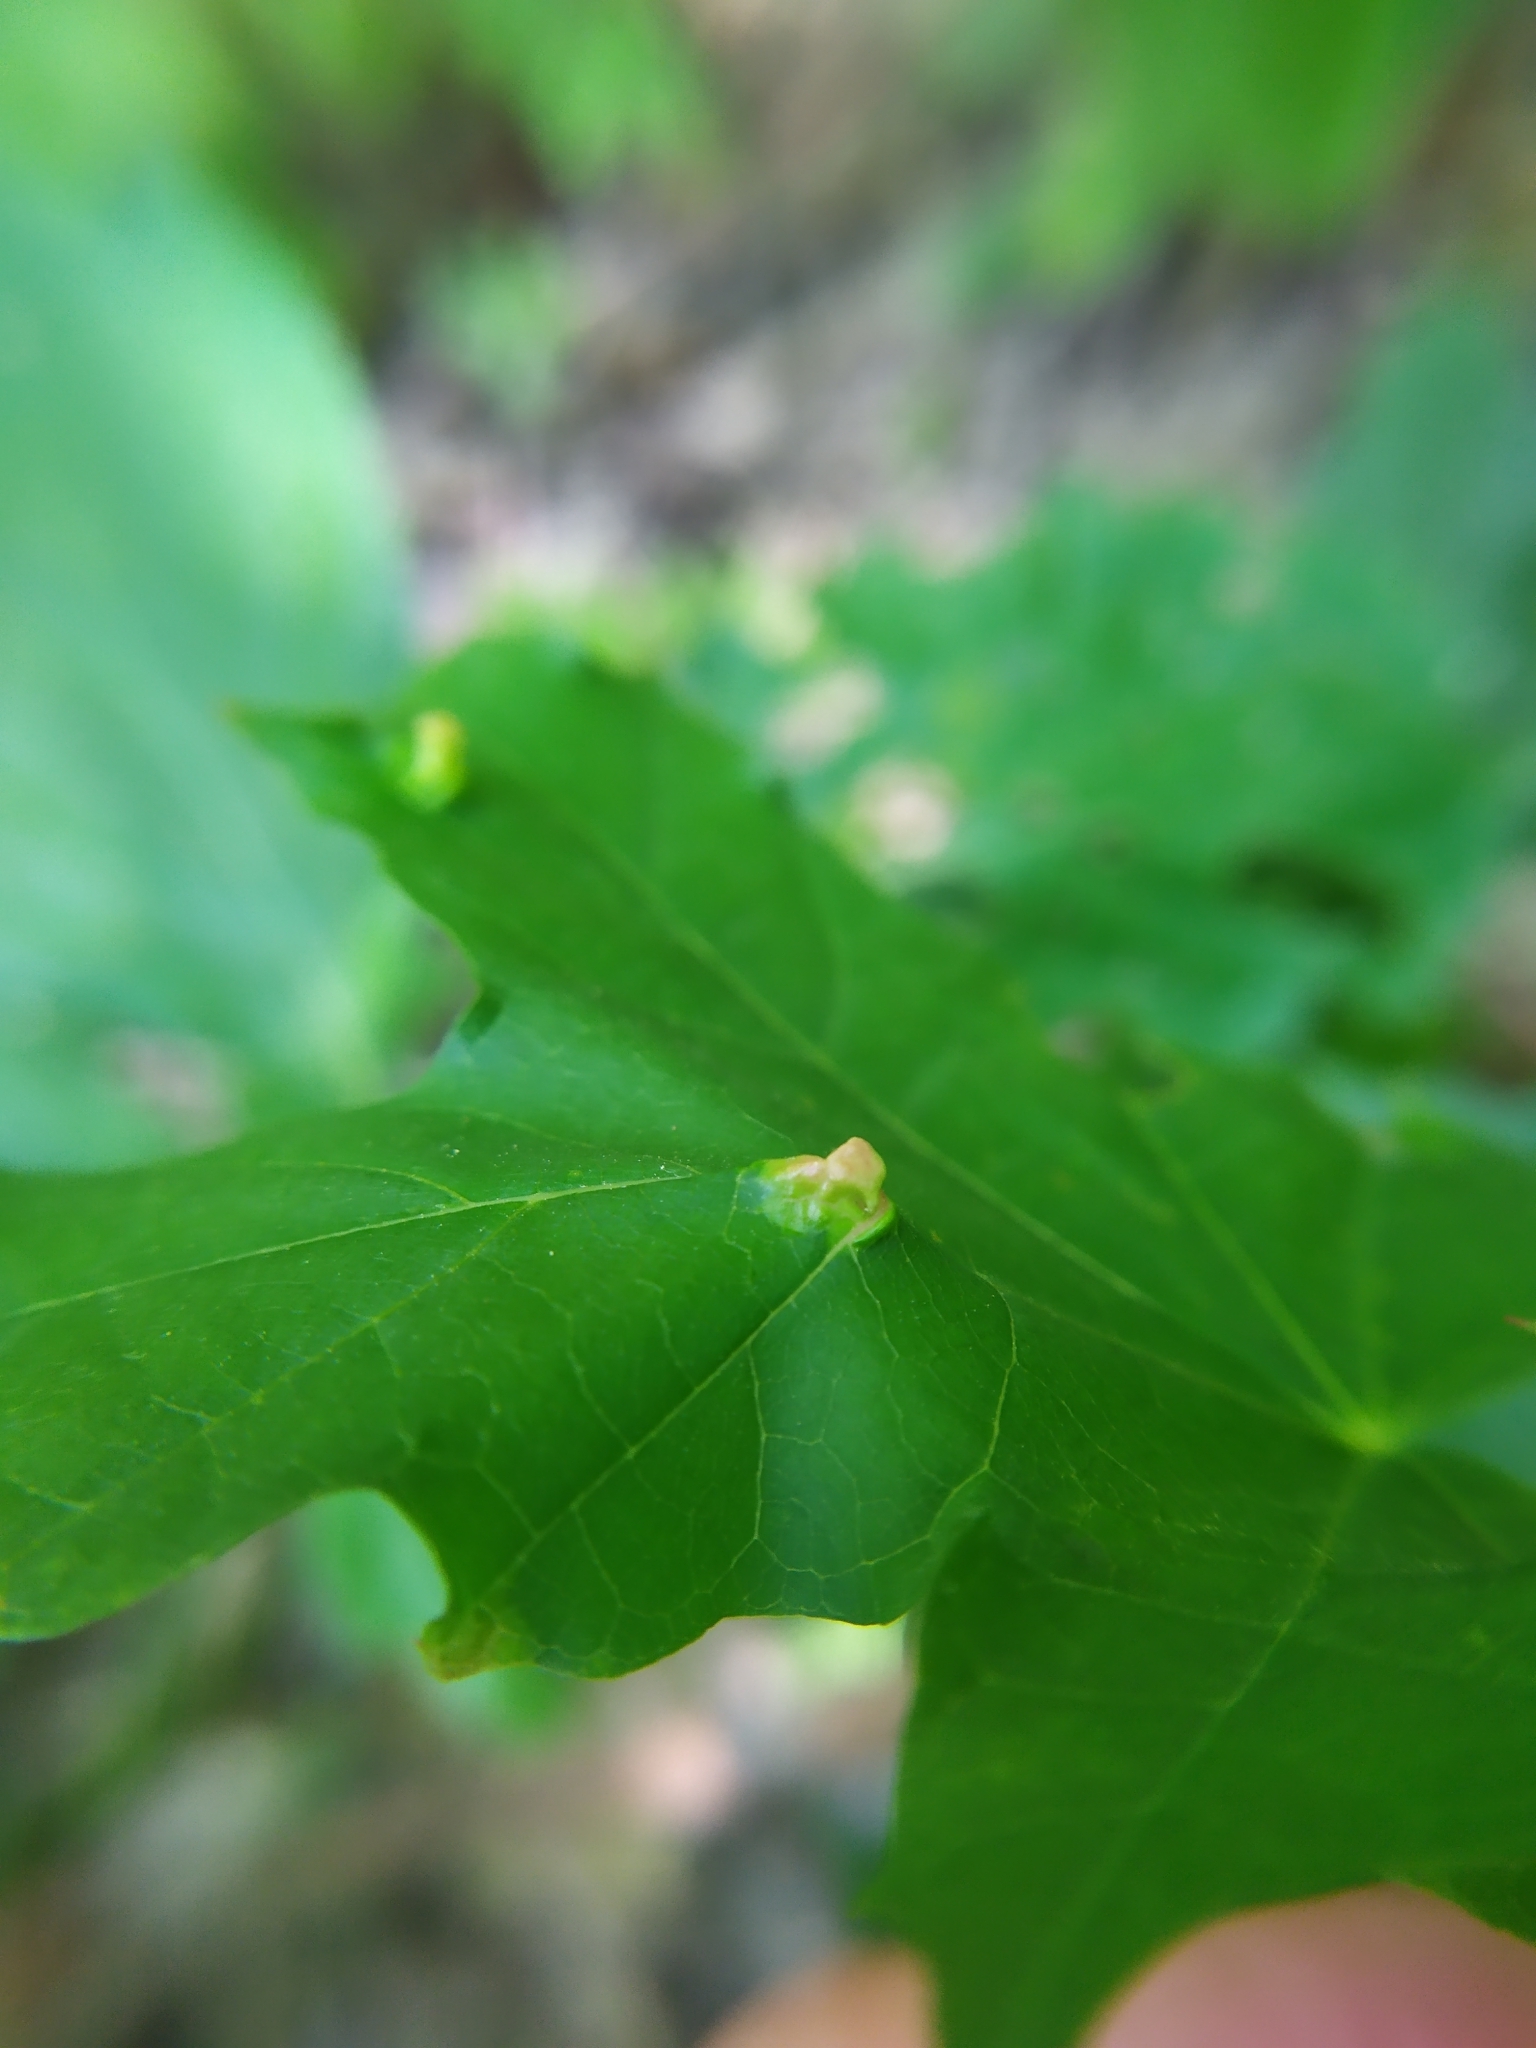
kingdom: Animalia
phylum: Arthropoda
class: Insecta
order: Hymenoptera
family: Cynipidae
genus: Pediaspis
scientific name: Pediaspis aceris
